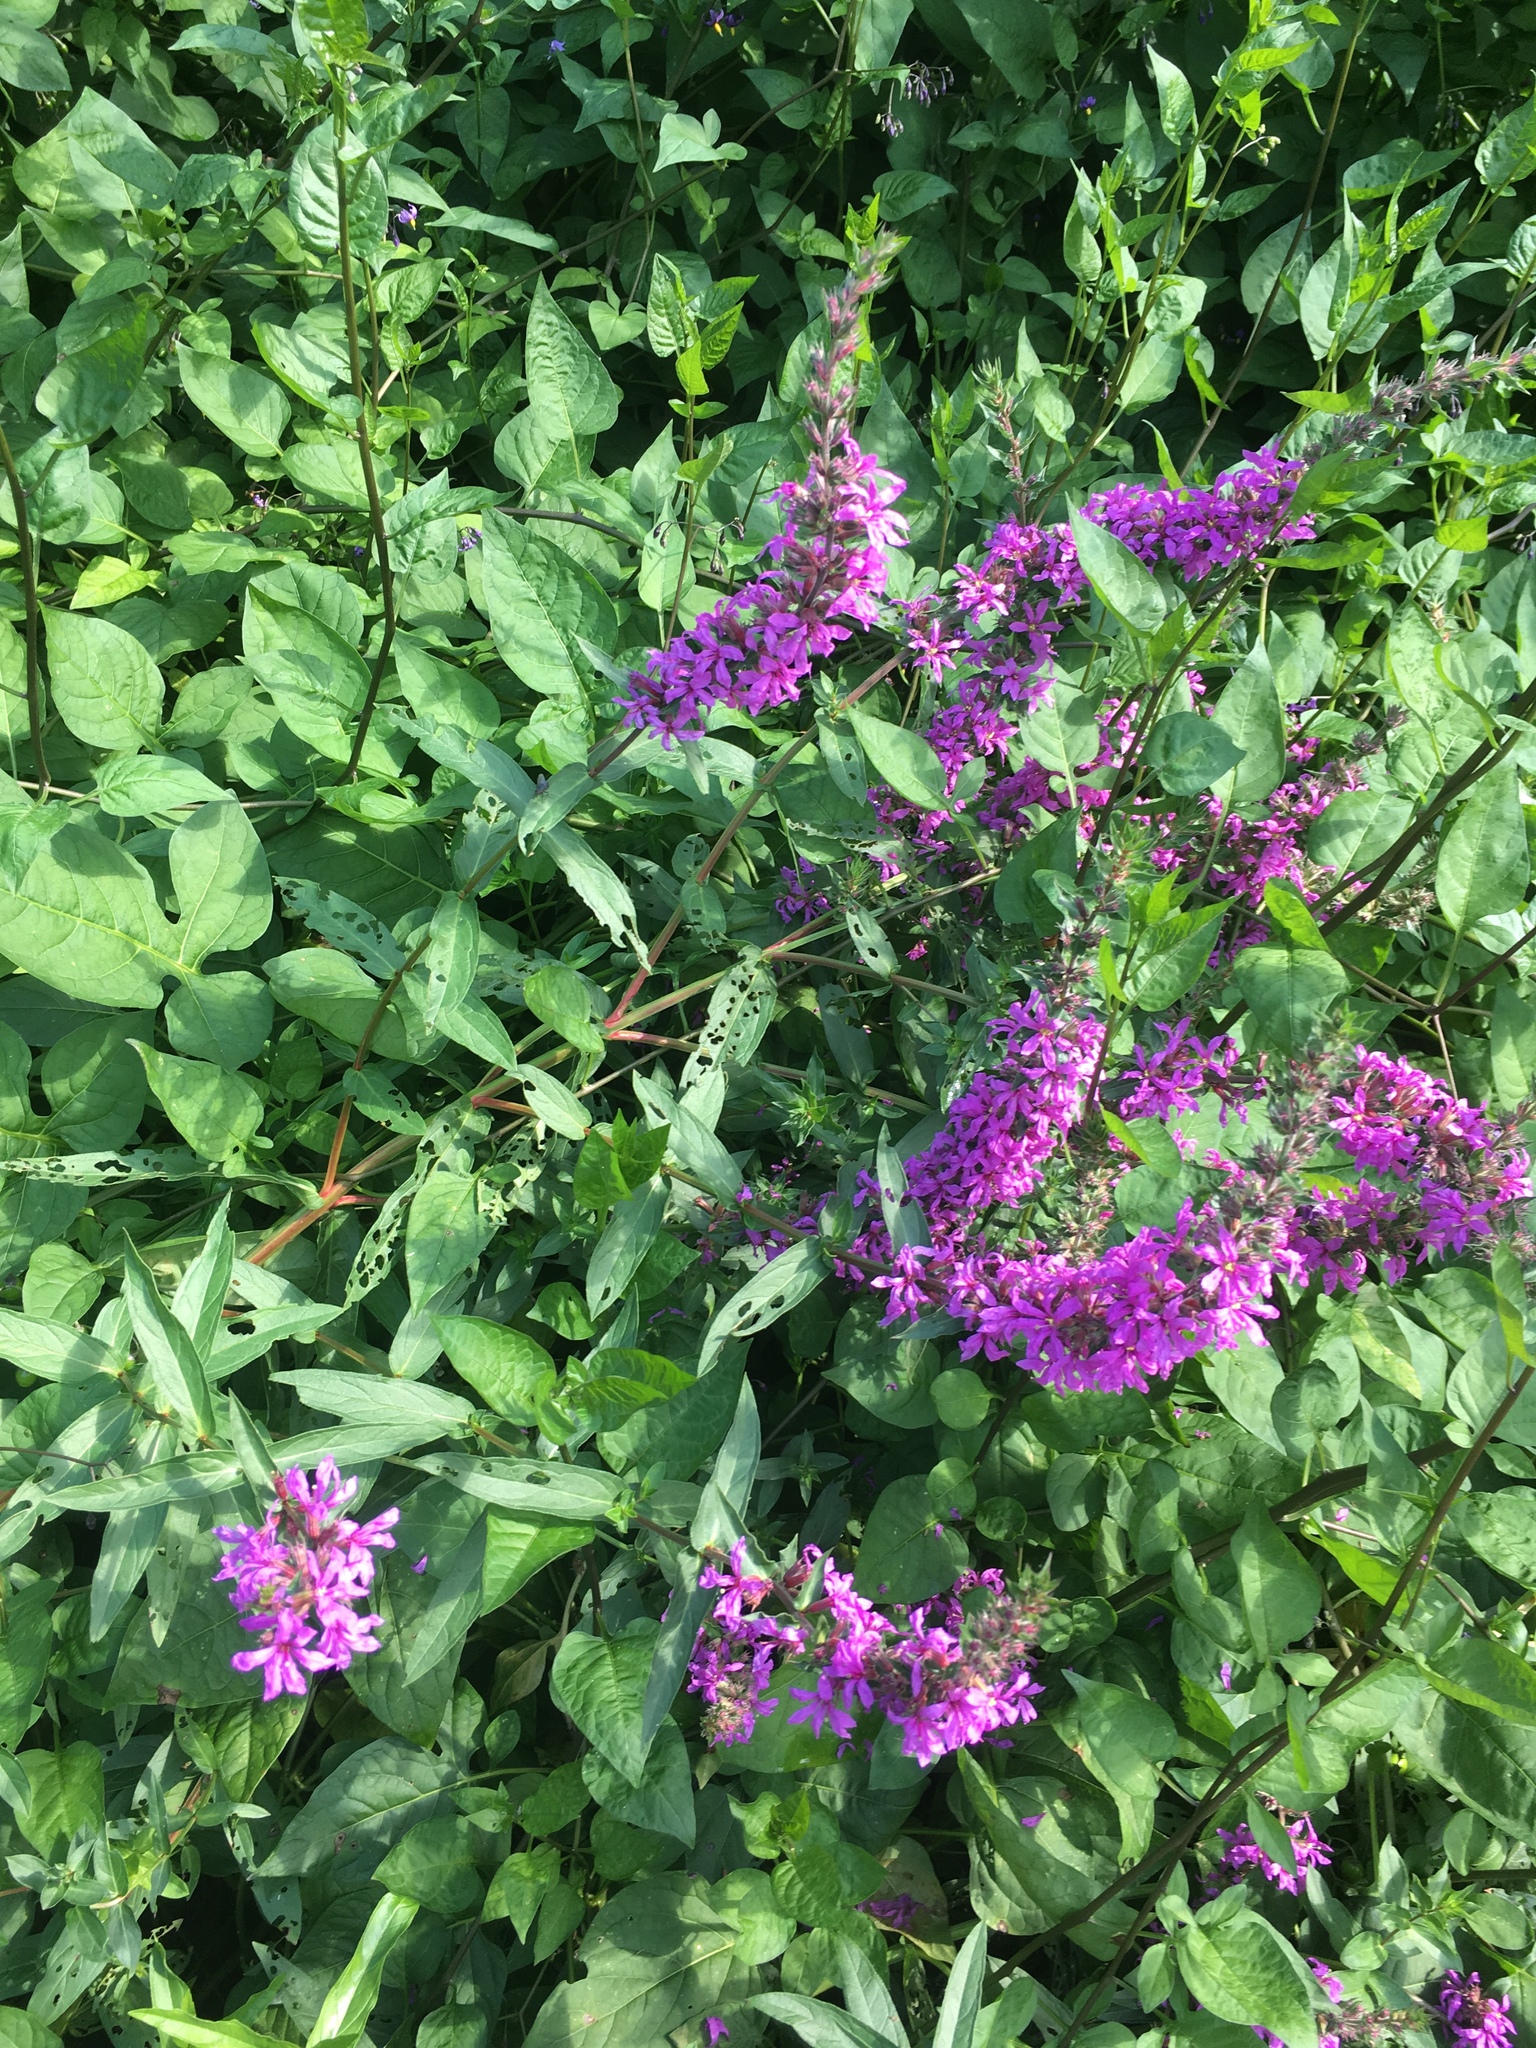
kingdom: Plantae
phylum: Tracheophyta
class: Magnoliopsida
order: Myrtales
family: Lythraceae
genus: Lythrum
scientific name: Lythrum salicaria
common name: Purple loosestrife
